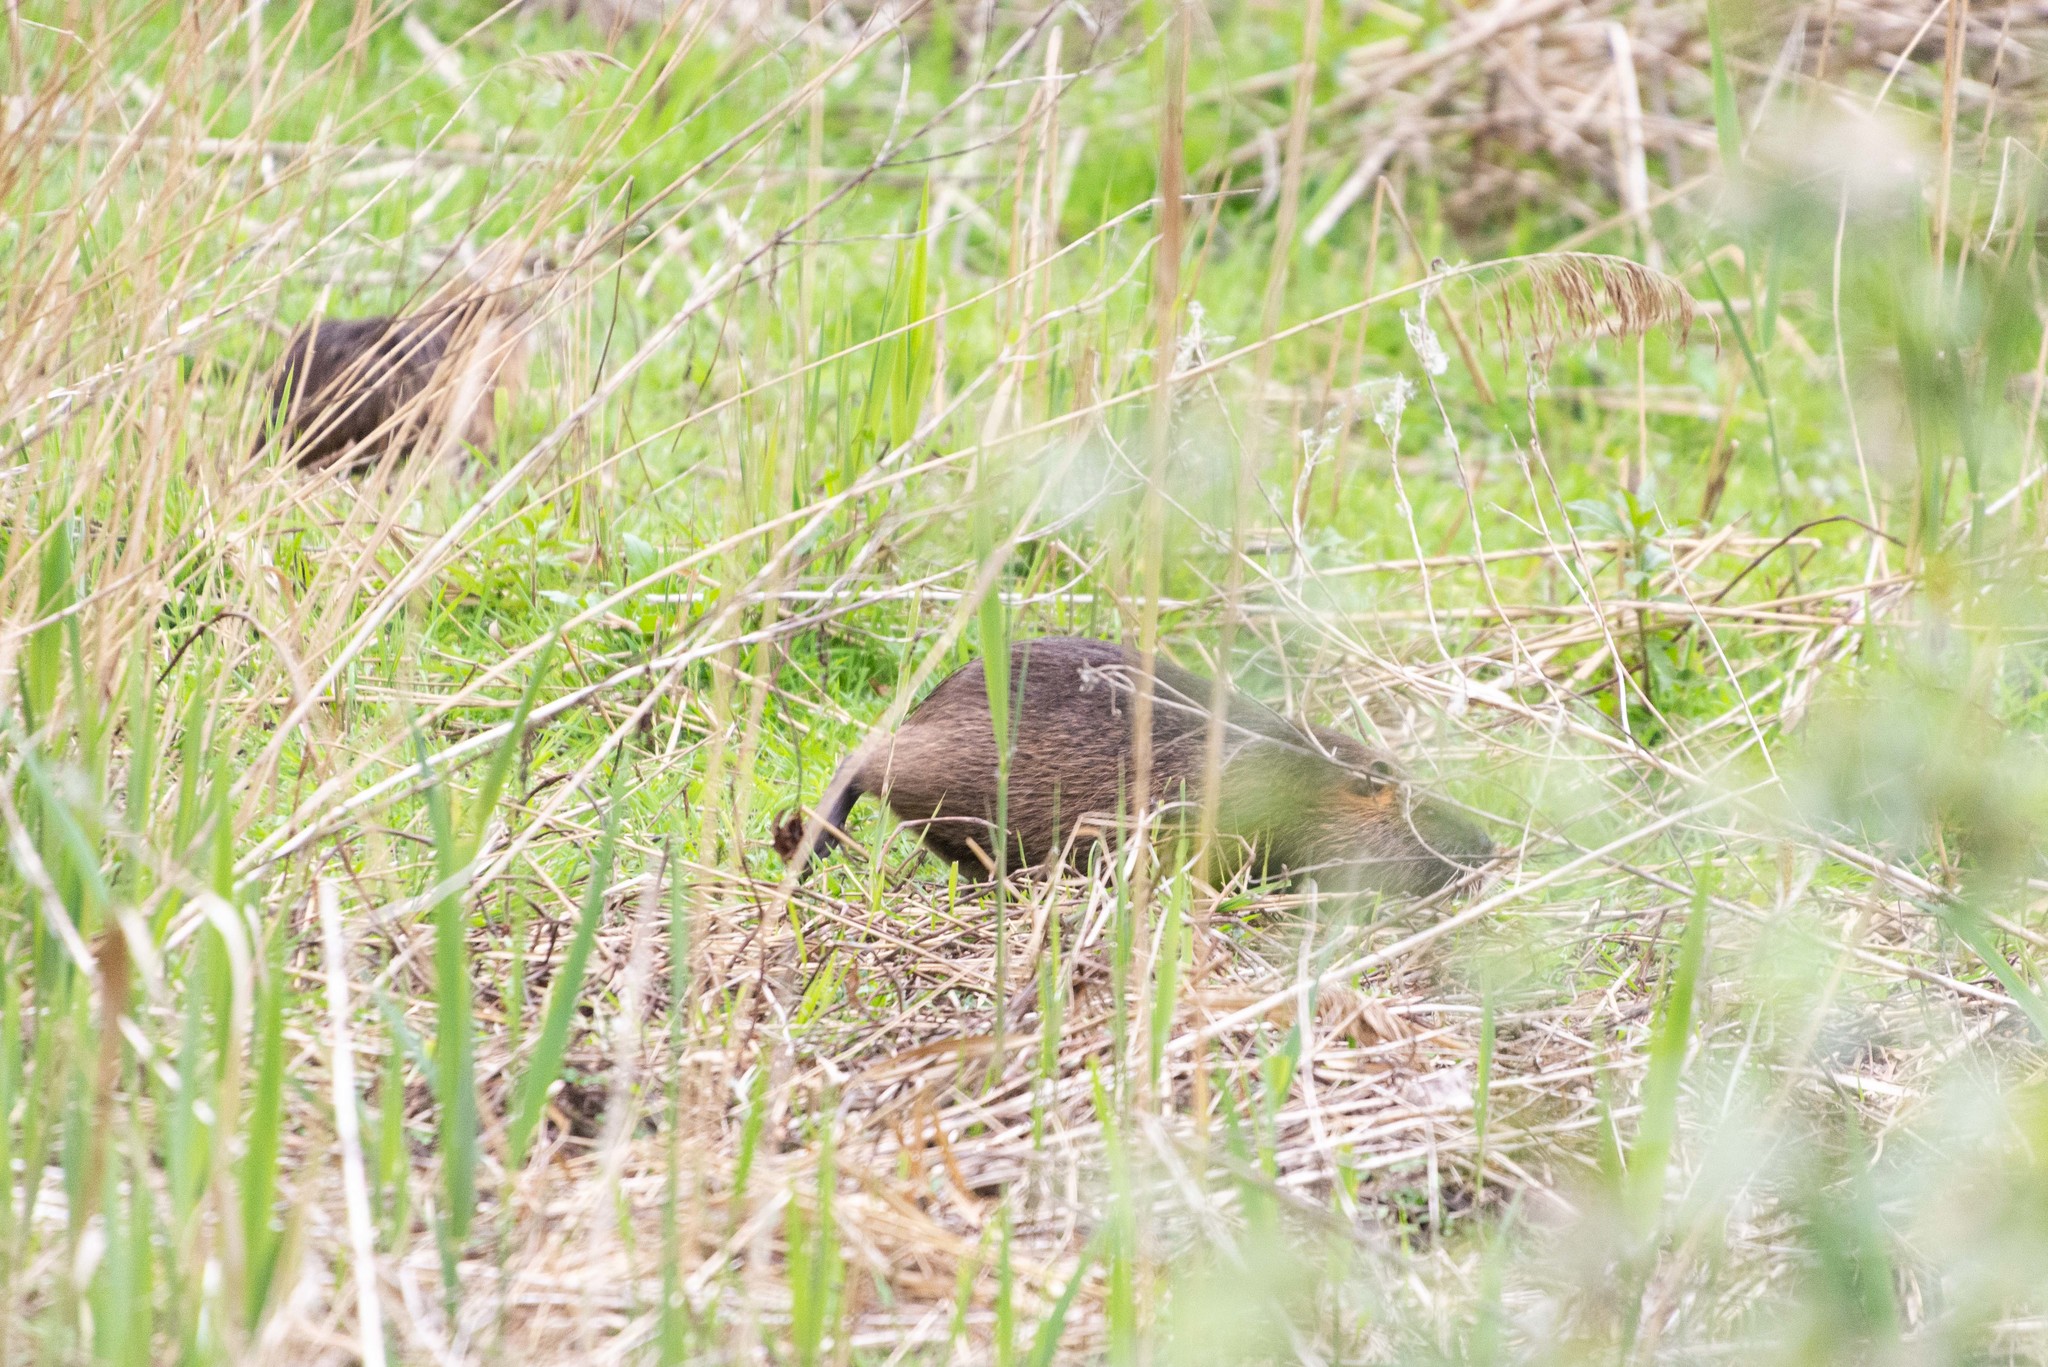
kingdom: Animalia
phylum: Chordata
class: Mammalia
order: Rodentia
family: Myocastoridae
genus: Myocastor
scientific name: Myocastor coypus
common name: Coypu
